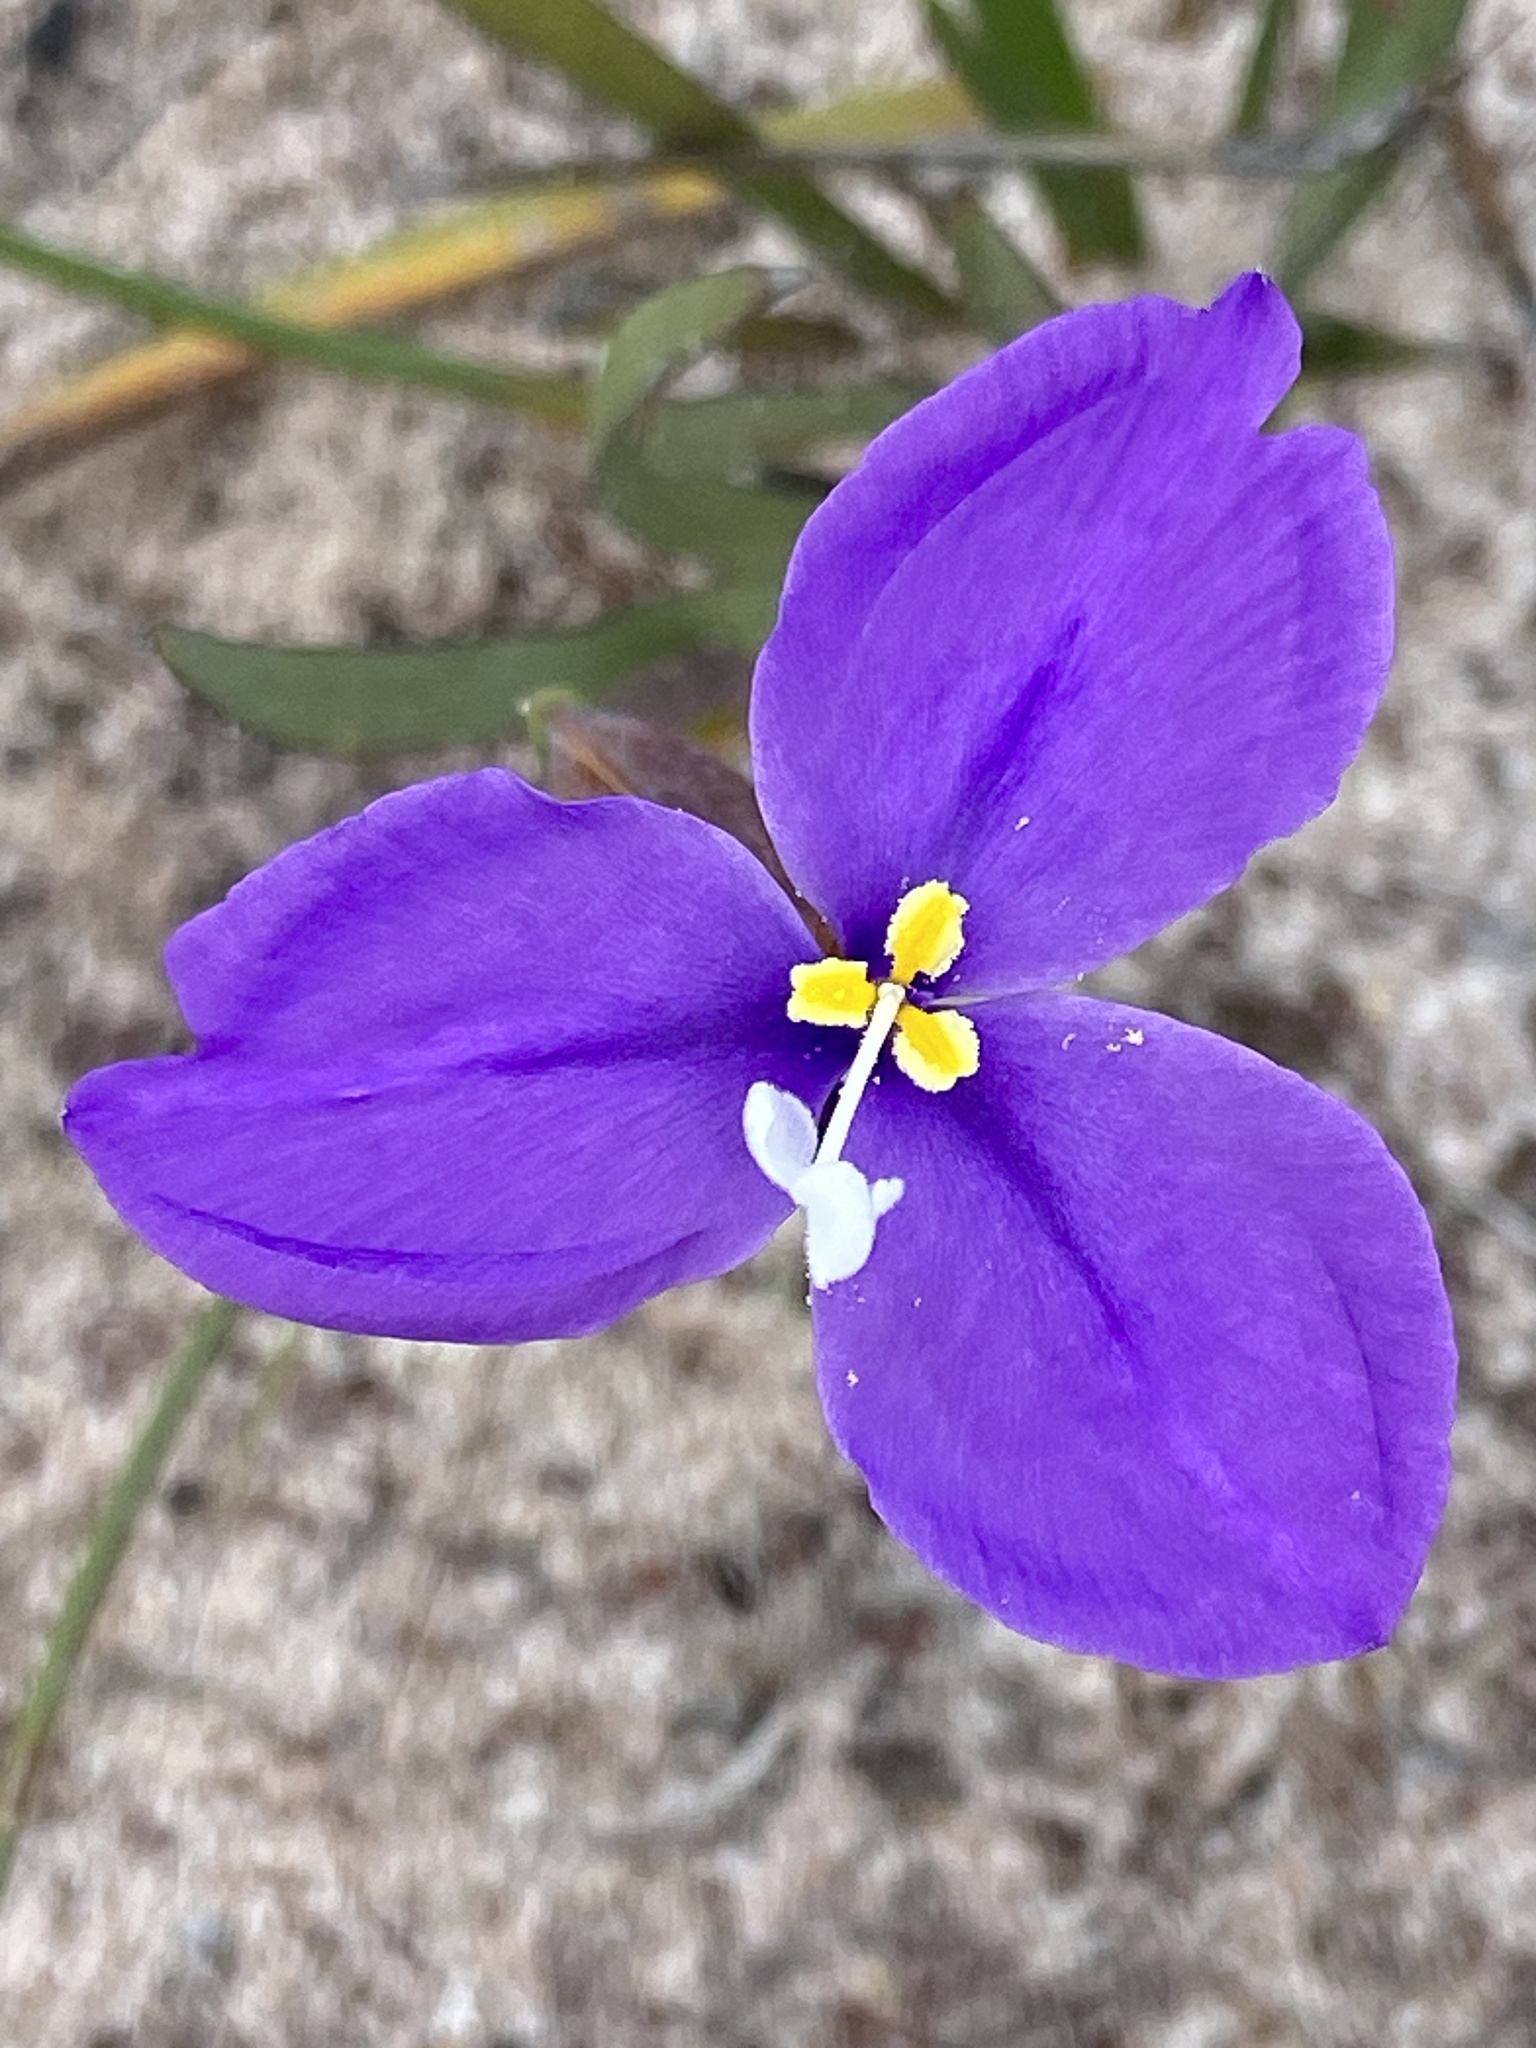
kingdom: Plantae
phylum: Tracheophyta
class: Liliopsida
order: Asparagales
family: Iridaceae
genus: Patersonia
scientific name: Patersonia occidentalis
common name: Long purple-flag
